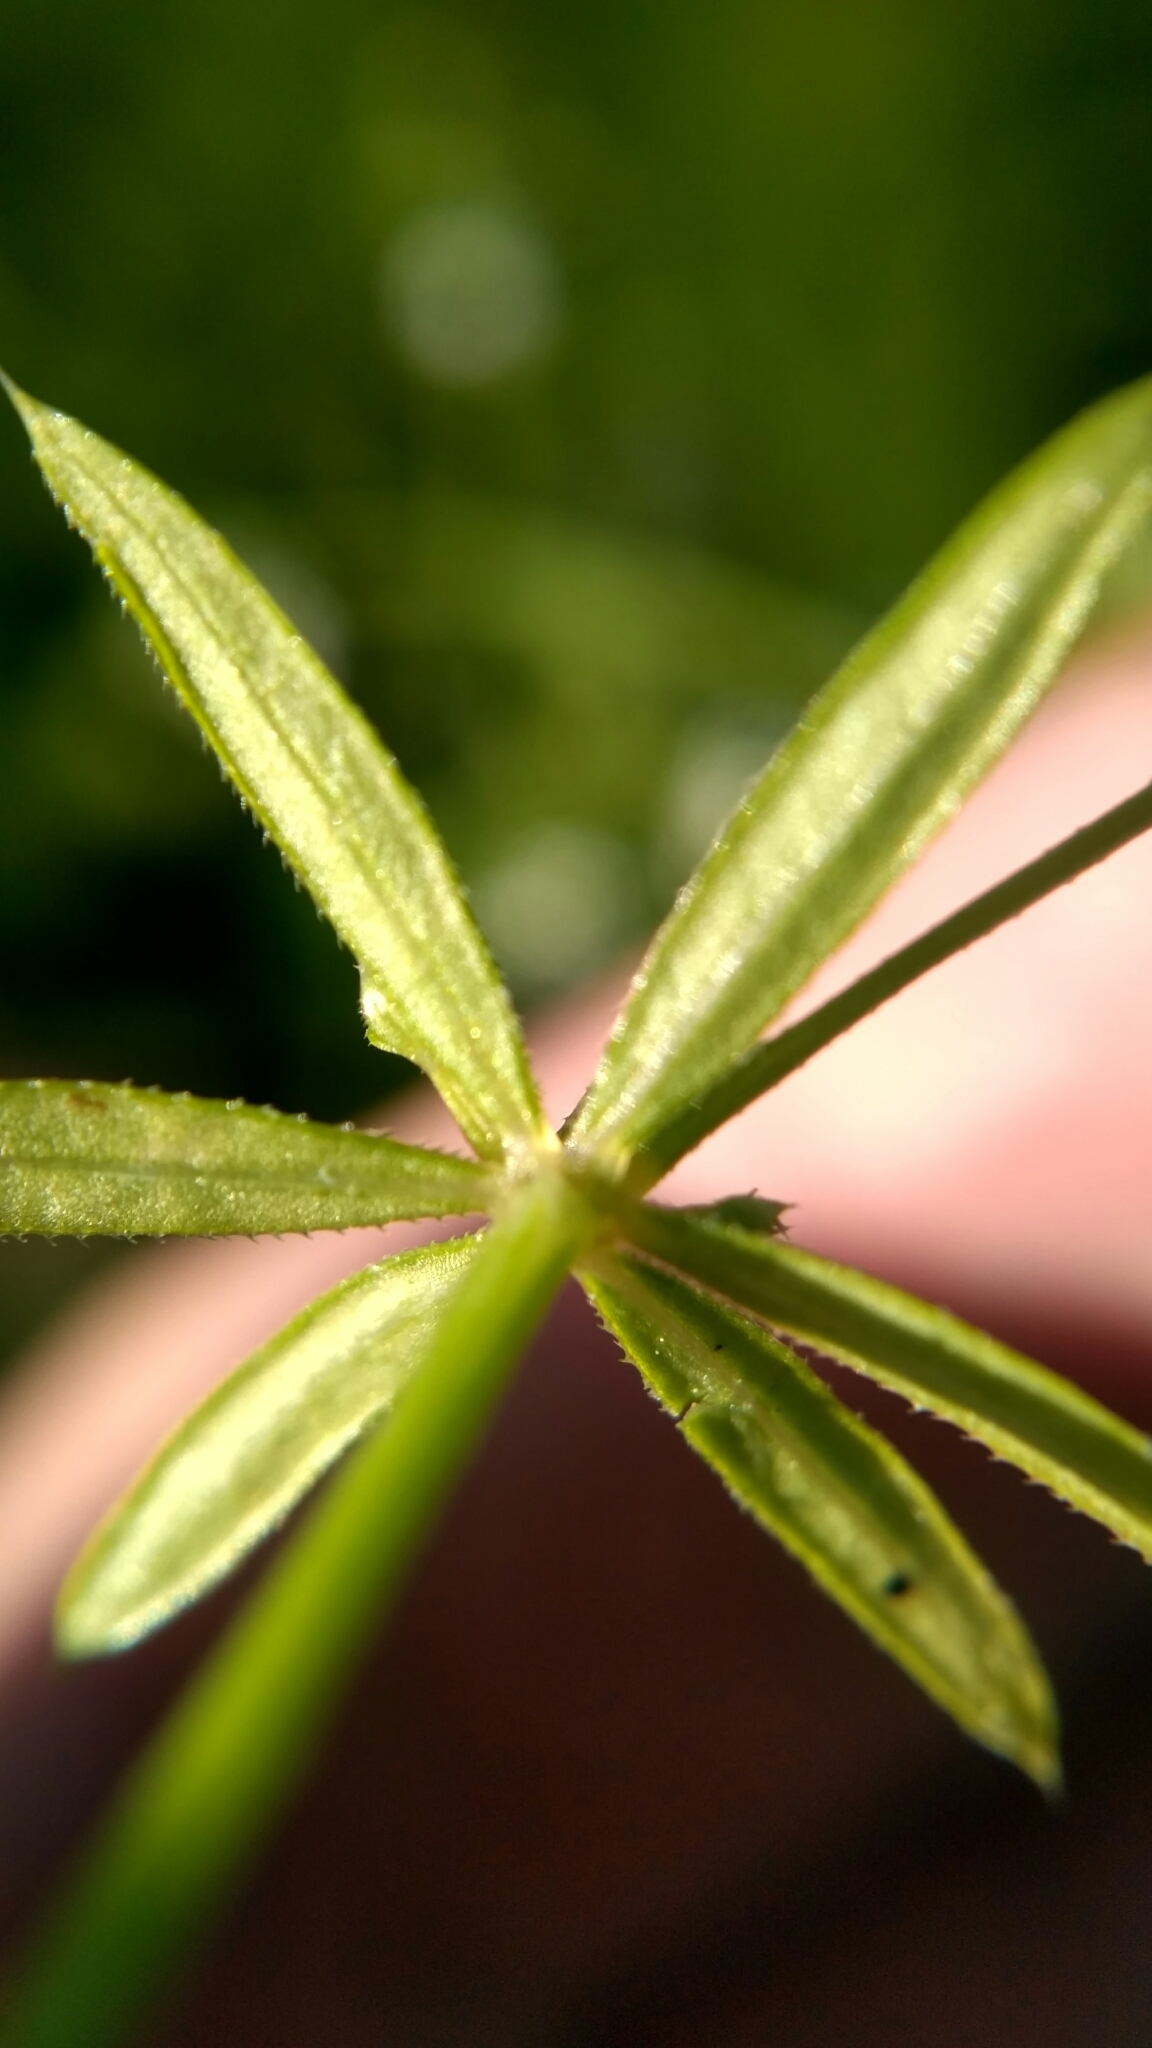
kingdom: Plantae
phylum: Tracheophyta
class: Magnoliopsida
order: Gentianales
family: Rubiaceae
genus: Galium
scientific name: Galium uliginosum
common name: Fen bedstraw
